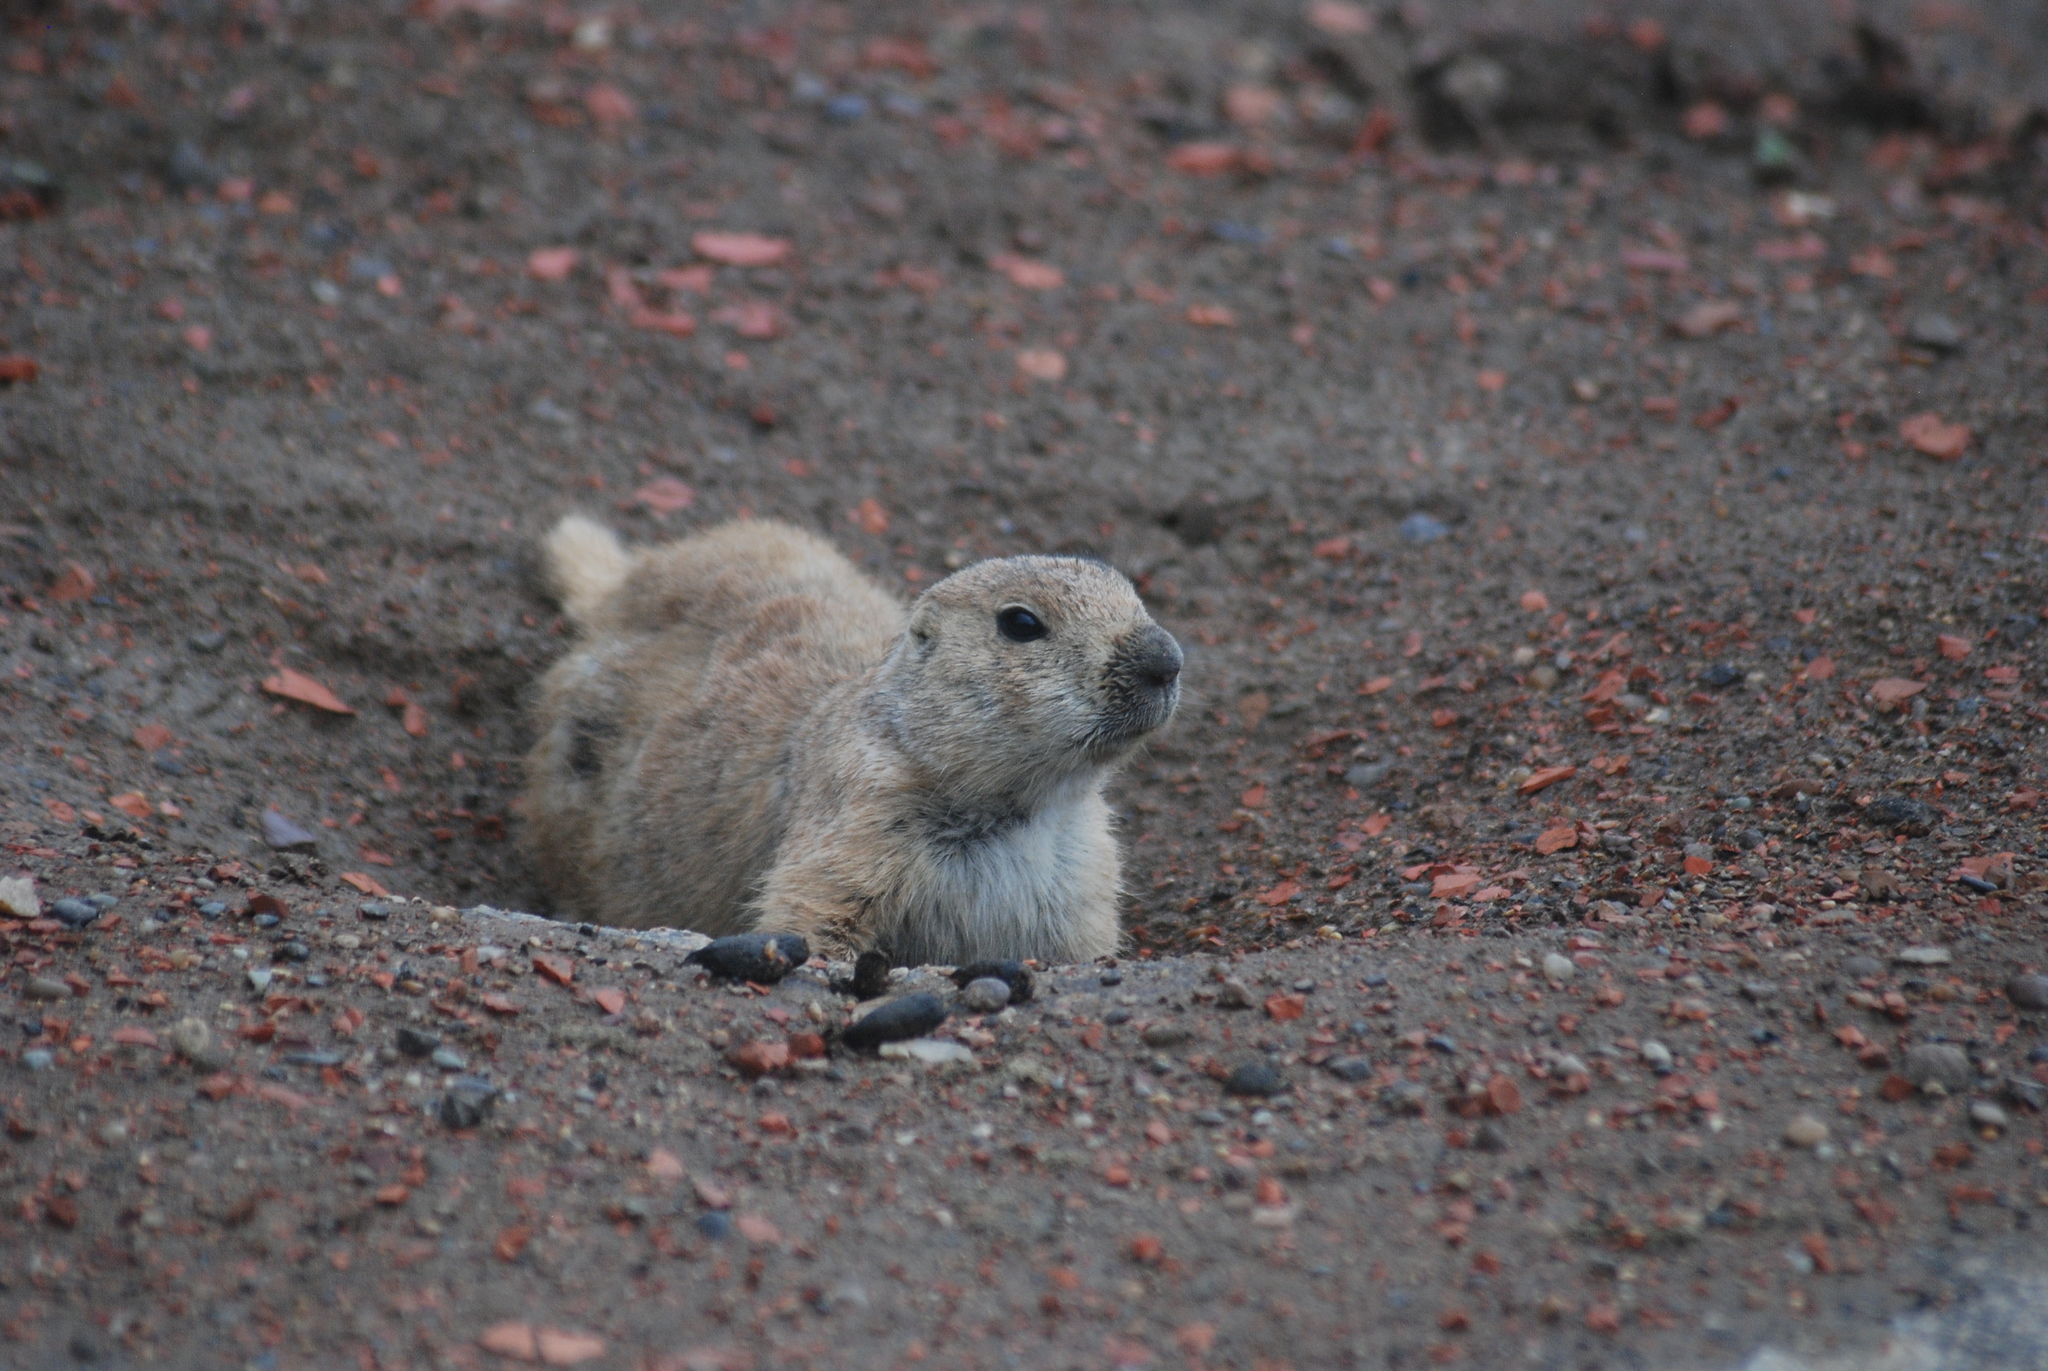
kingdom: Animalia
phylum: Chordata
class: Mammalia
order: Rodentia
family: Sciuridae
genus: Cynomys
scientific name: Cynomys ludovicianus
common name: Black-tailed prairie dog
